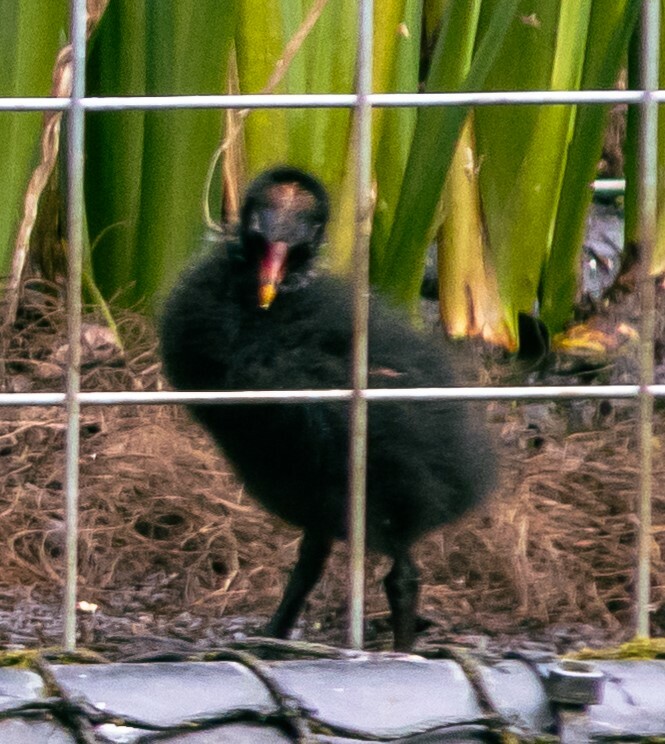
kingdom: Animalia
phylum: Chordata
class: Aves
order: Gruiformes
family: Rallidae
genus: Gallinula
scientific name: Gallinula chloropus
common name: Common moorhen
